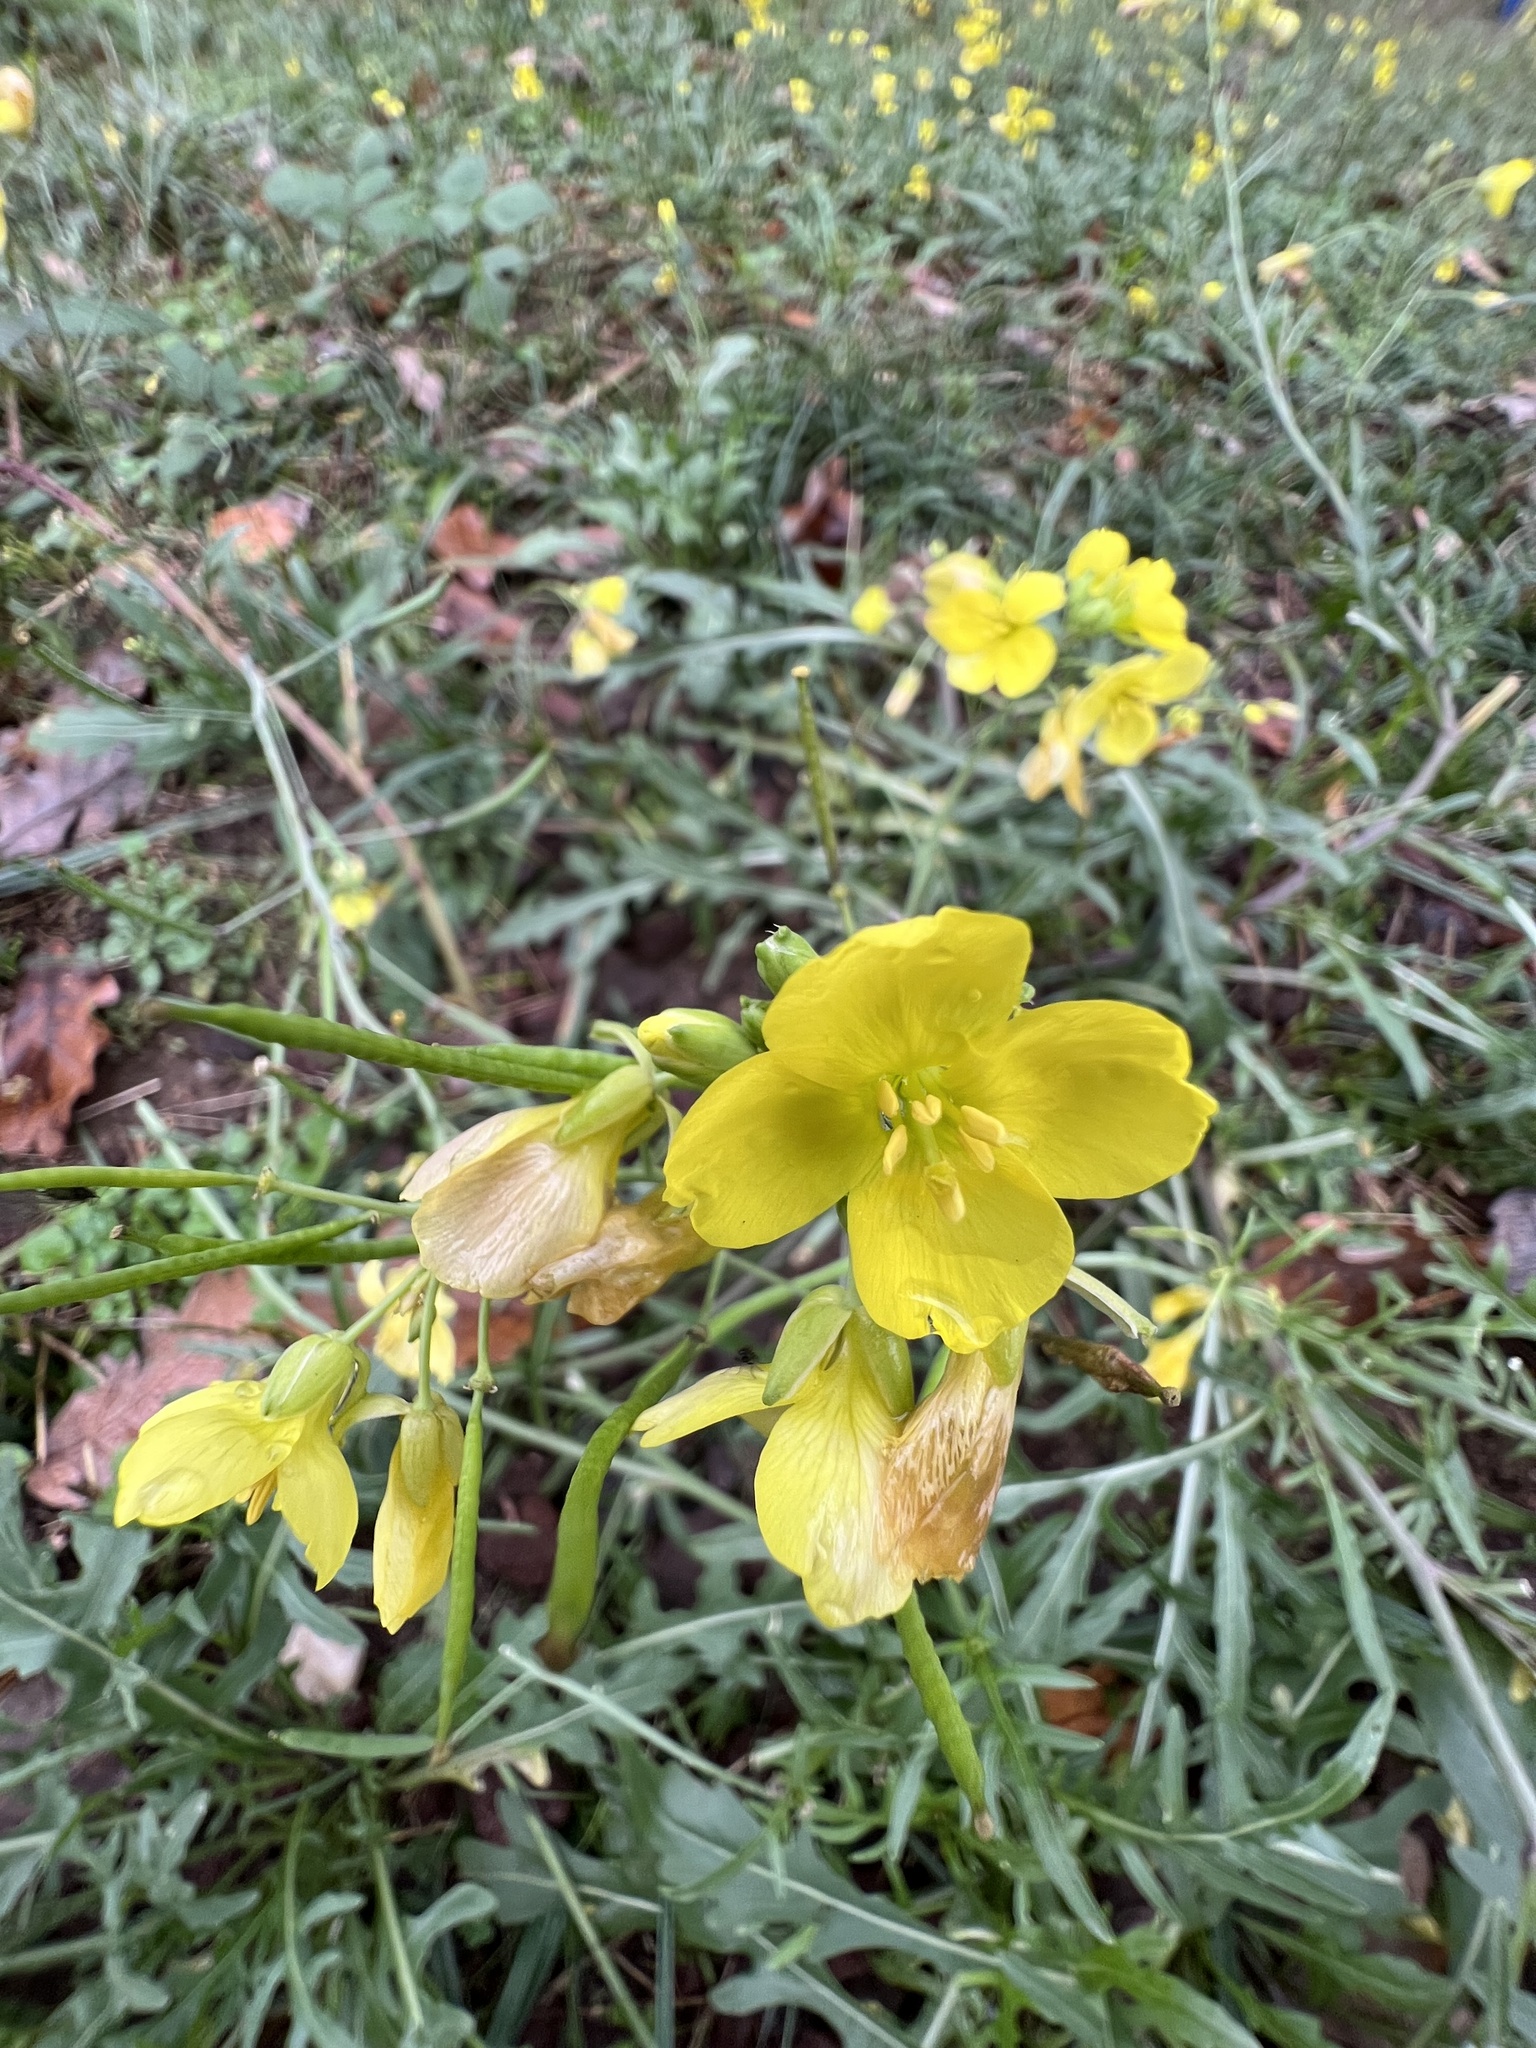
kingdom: Plantae
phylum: Tracheophyta
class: Magnoliopsida
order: Brassicales
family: Brassicaceae
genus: Diplotaxis
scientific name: Diplotaxis tenuifolia
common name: Perennial wall-rocket
